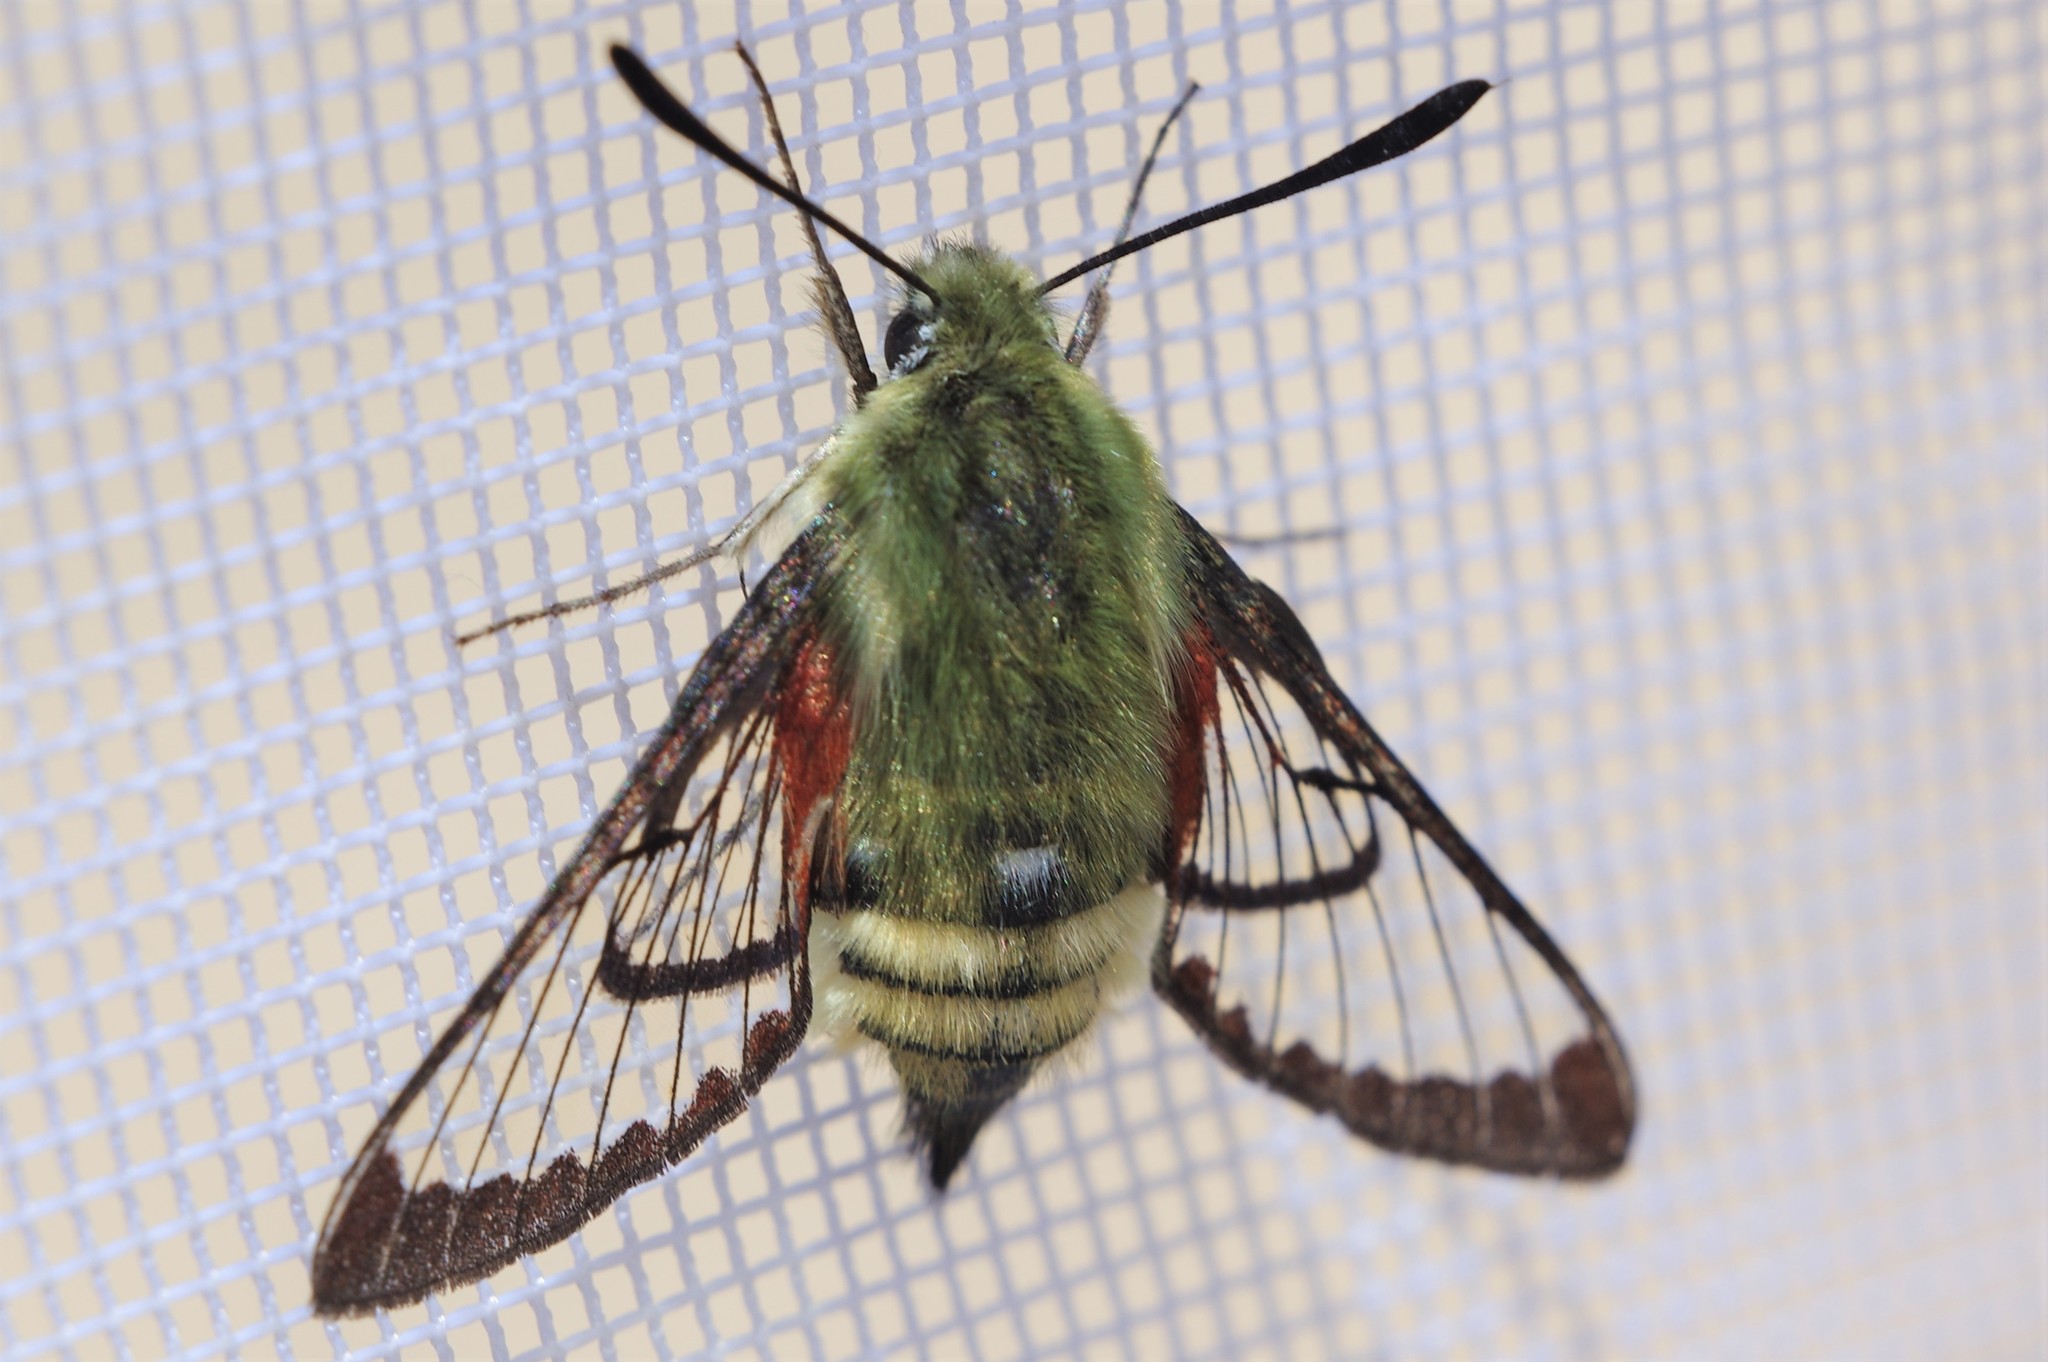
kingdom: Animalia
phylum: Arthropoda
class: Insecta
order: Lepidoptera
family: Sphingidae
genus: Hemaris
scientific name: Hemaris thetis
